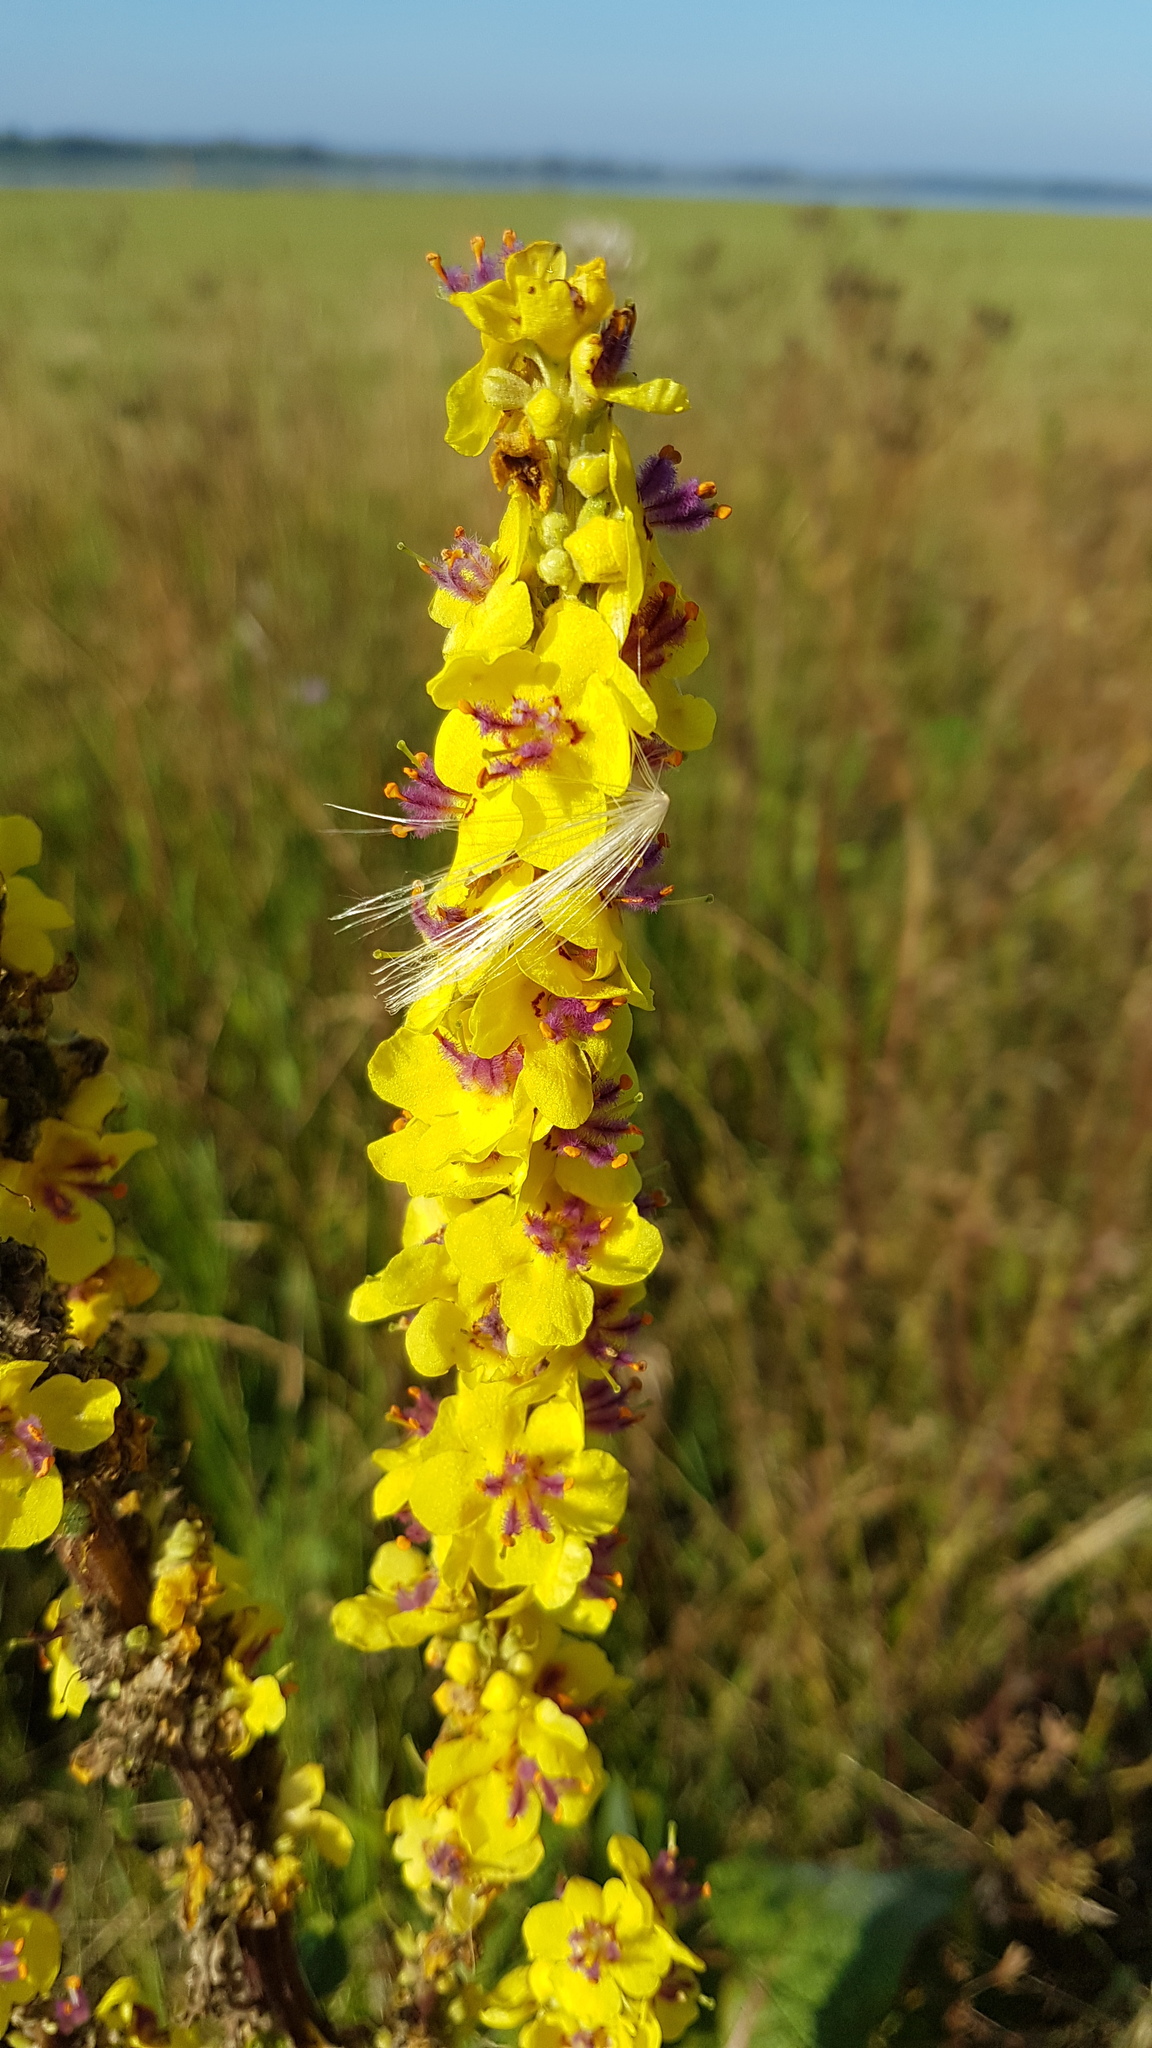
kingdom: Plantae
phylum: Tracheophyta
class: Magnoliopsida
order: Lamiales
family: Scrophulariaceae
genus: Verbascum
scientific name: Verbascum nigrum
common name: Dark mullein
